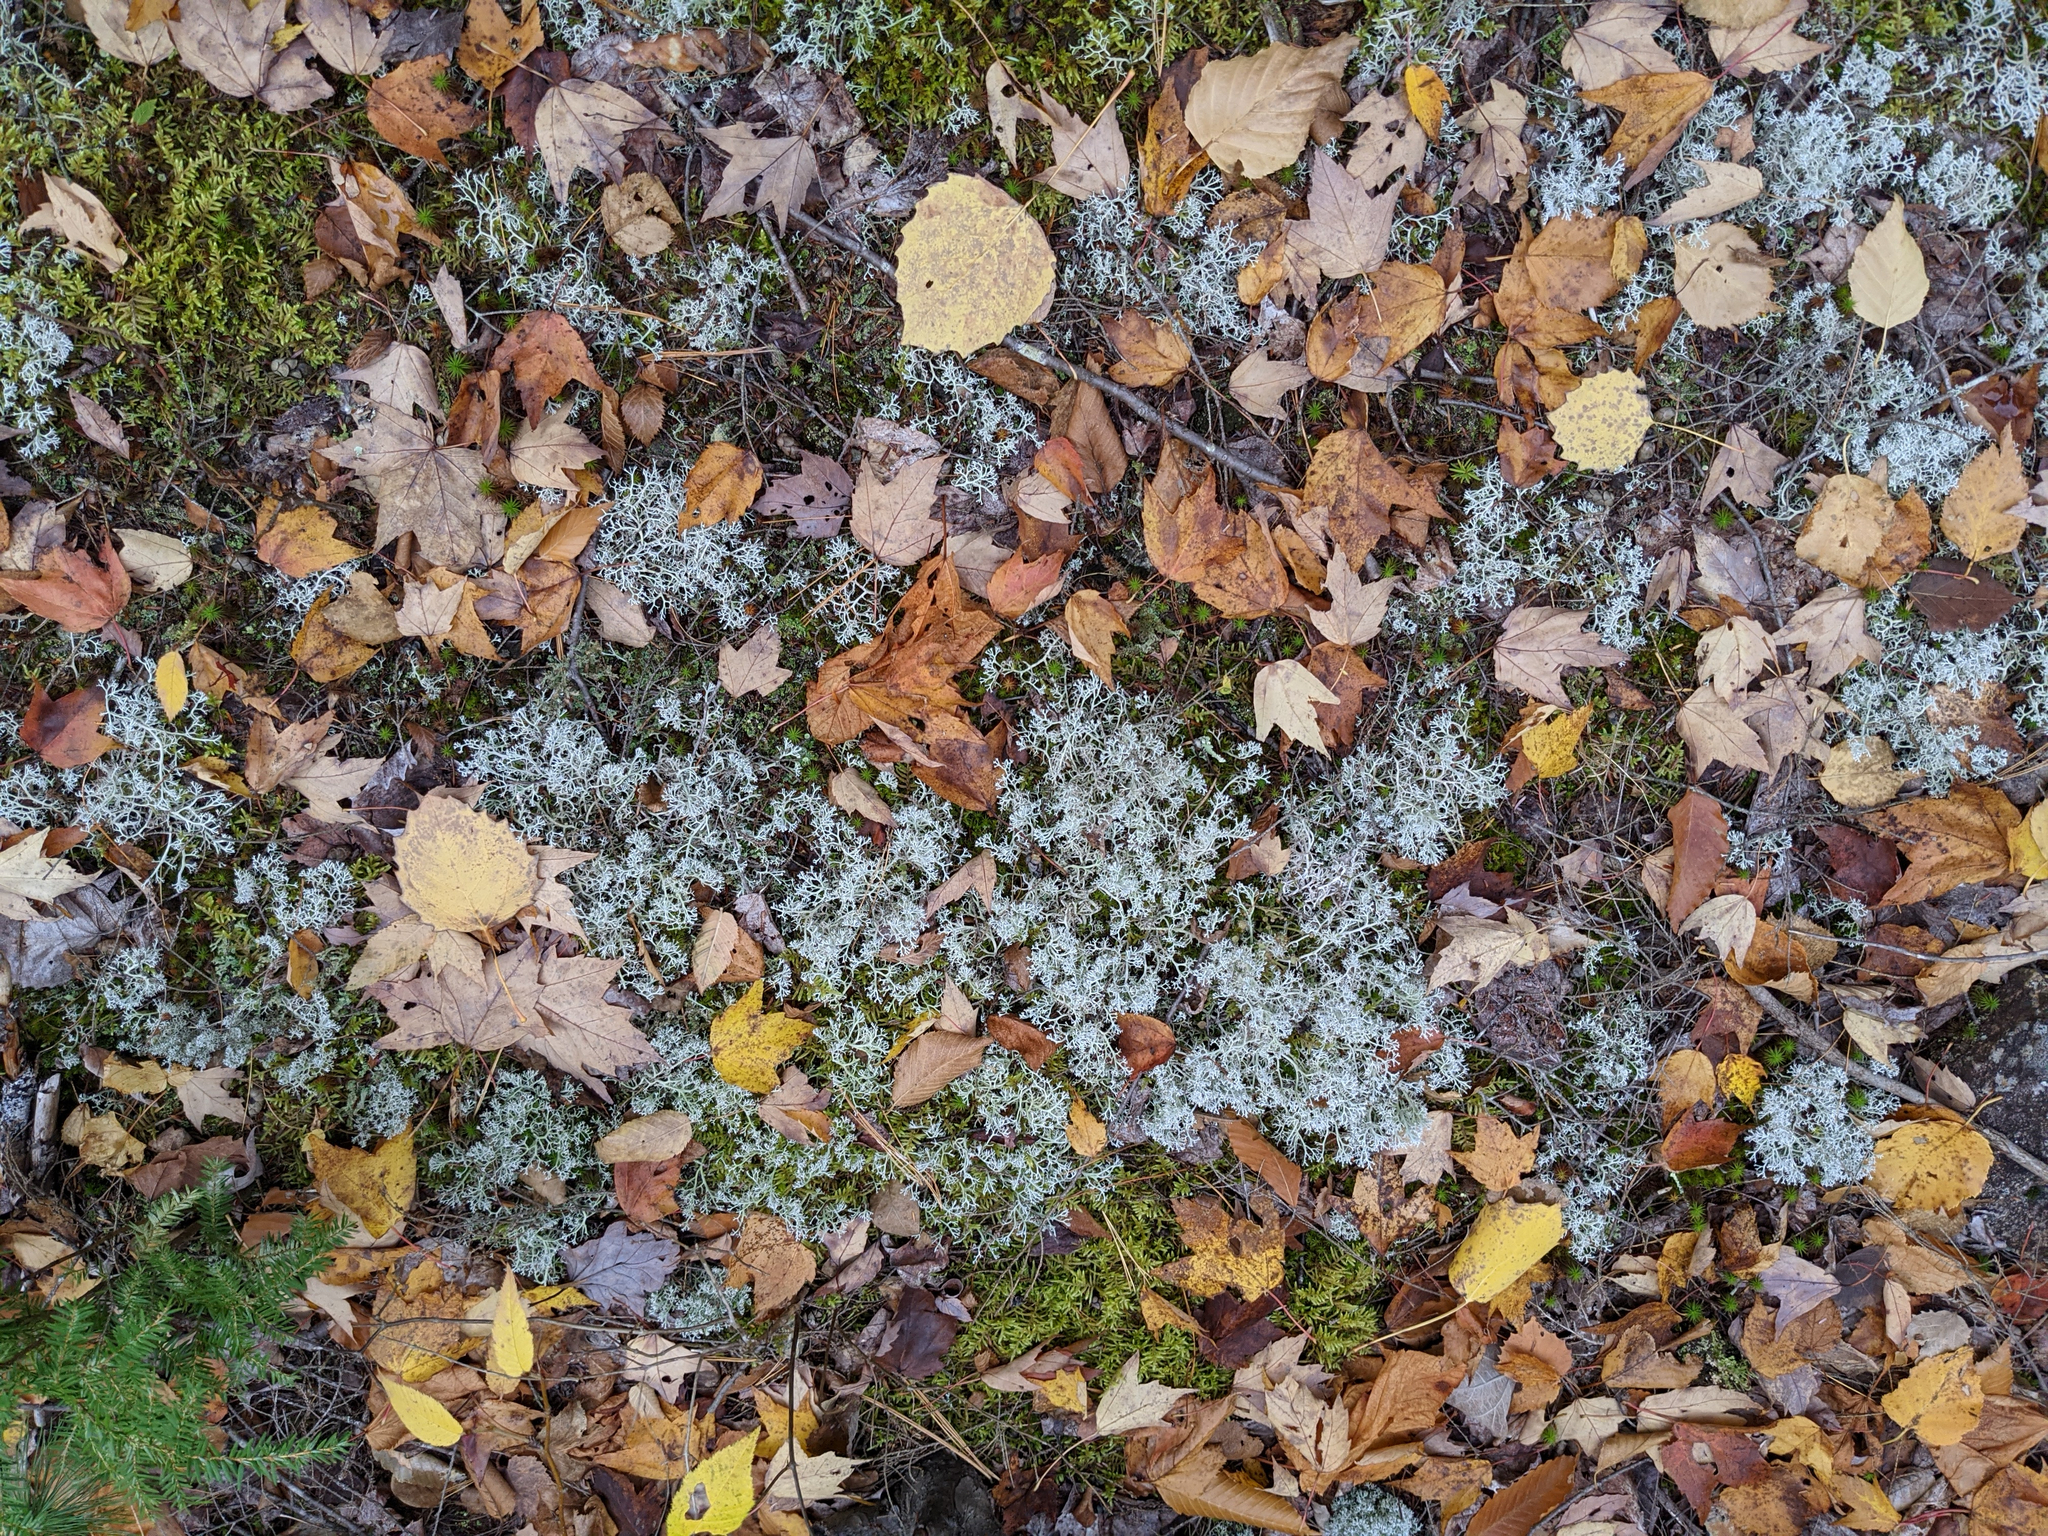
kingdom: Plantae
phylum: Tracheophyta
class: Magnoliopsida
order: Malpighiales
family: Salicaceae
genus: Populus
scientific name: Populus grandidentata
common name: Bigtooth aspen
